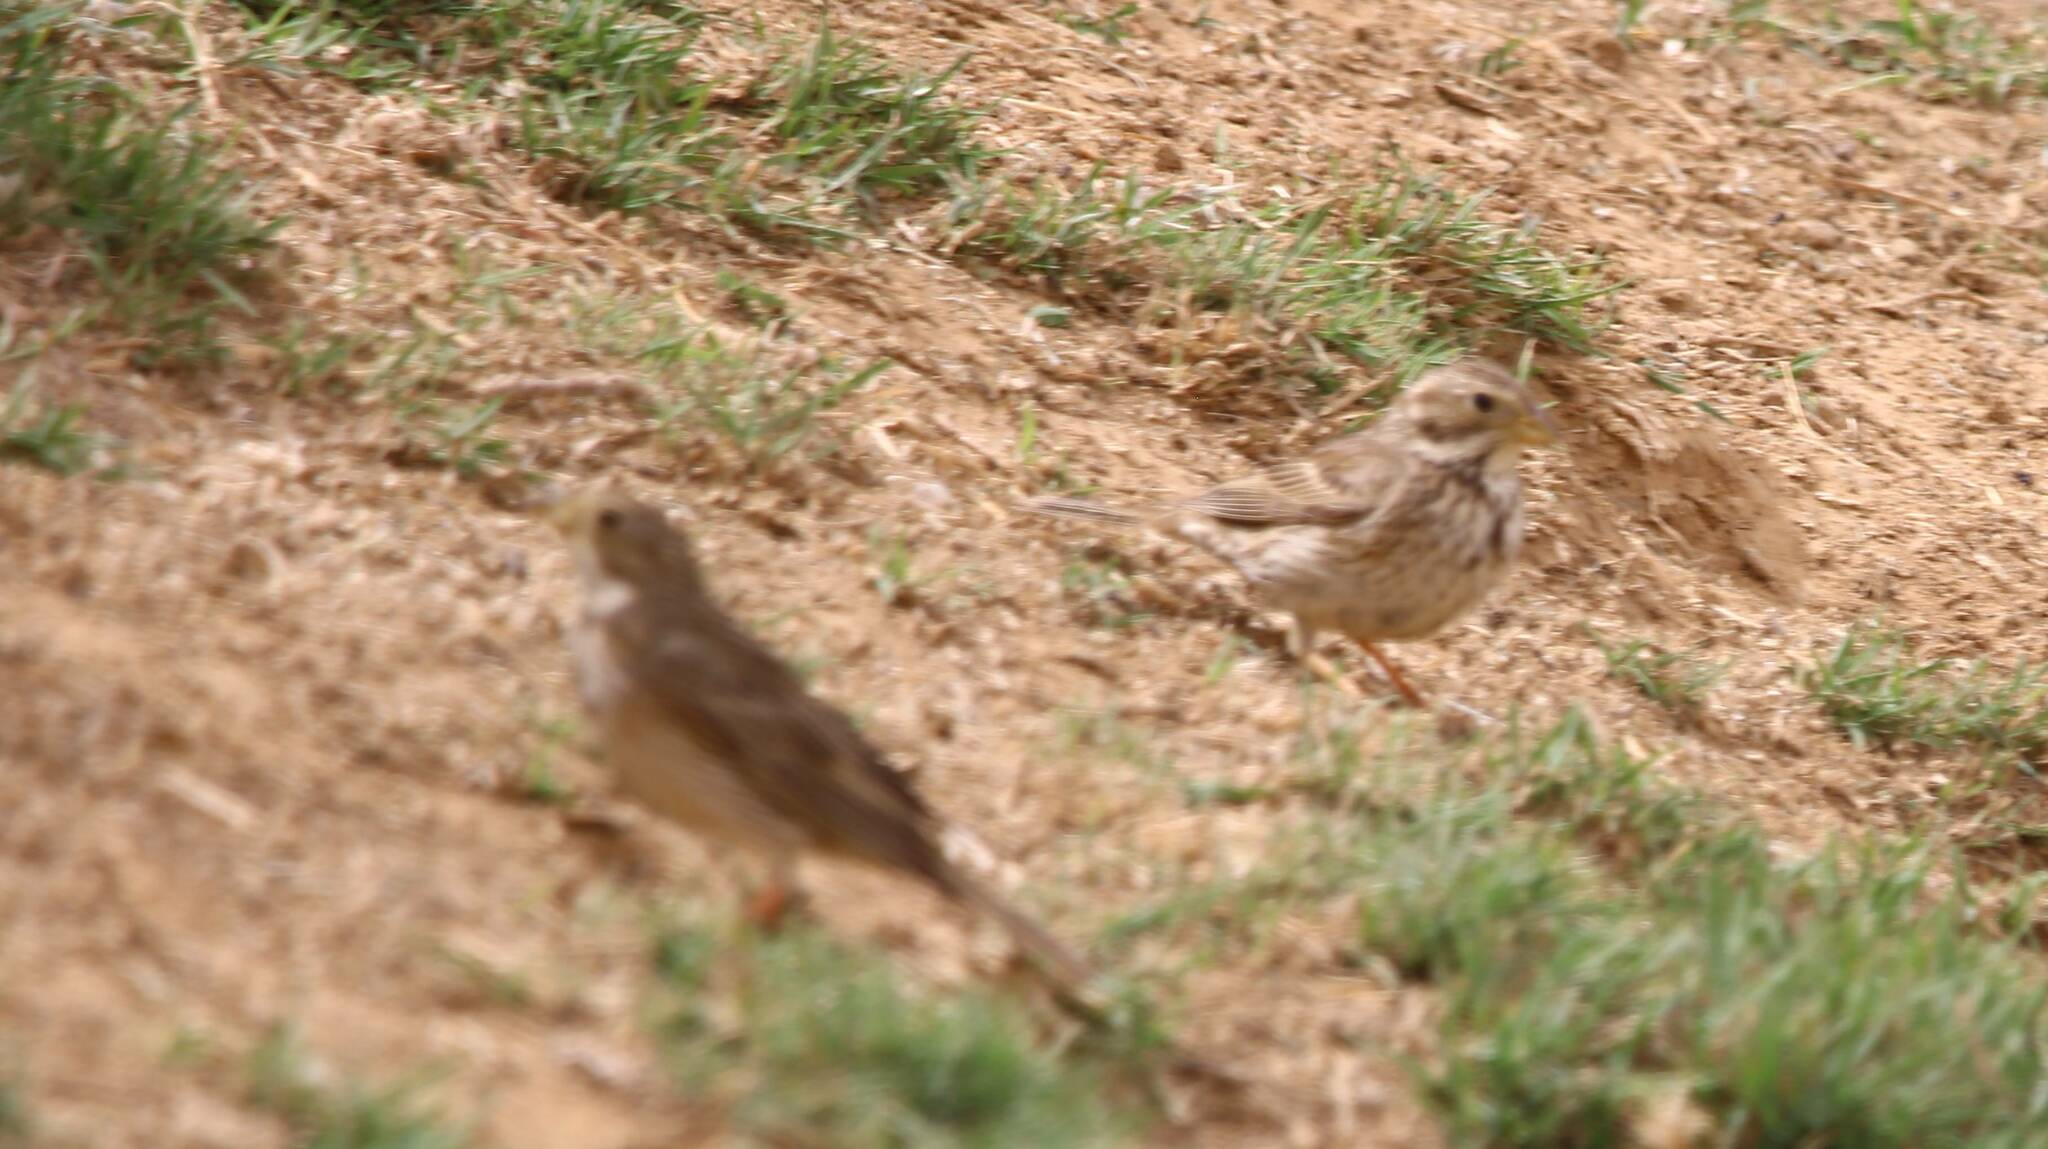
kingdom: Animalia
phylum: Chordata
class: Aves
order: Passeriformes
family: Emberizidae
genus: Emberiza
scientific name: Emberiza calandra
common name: Corn bunting
